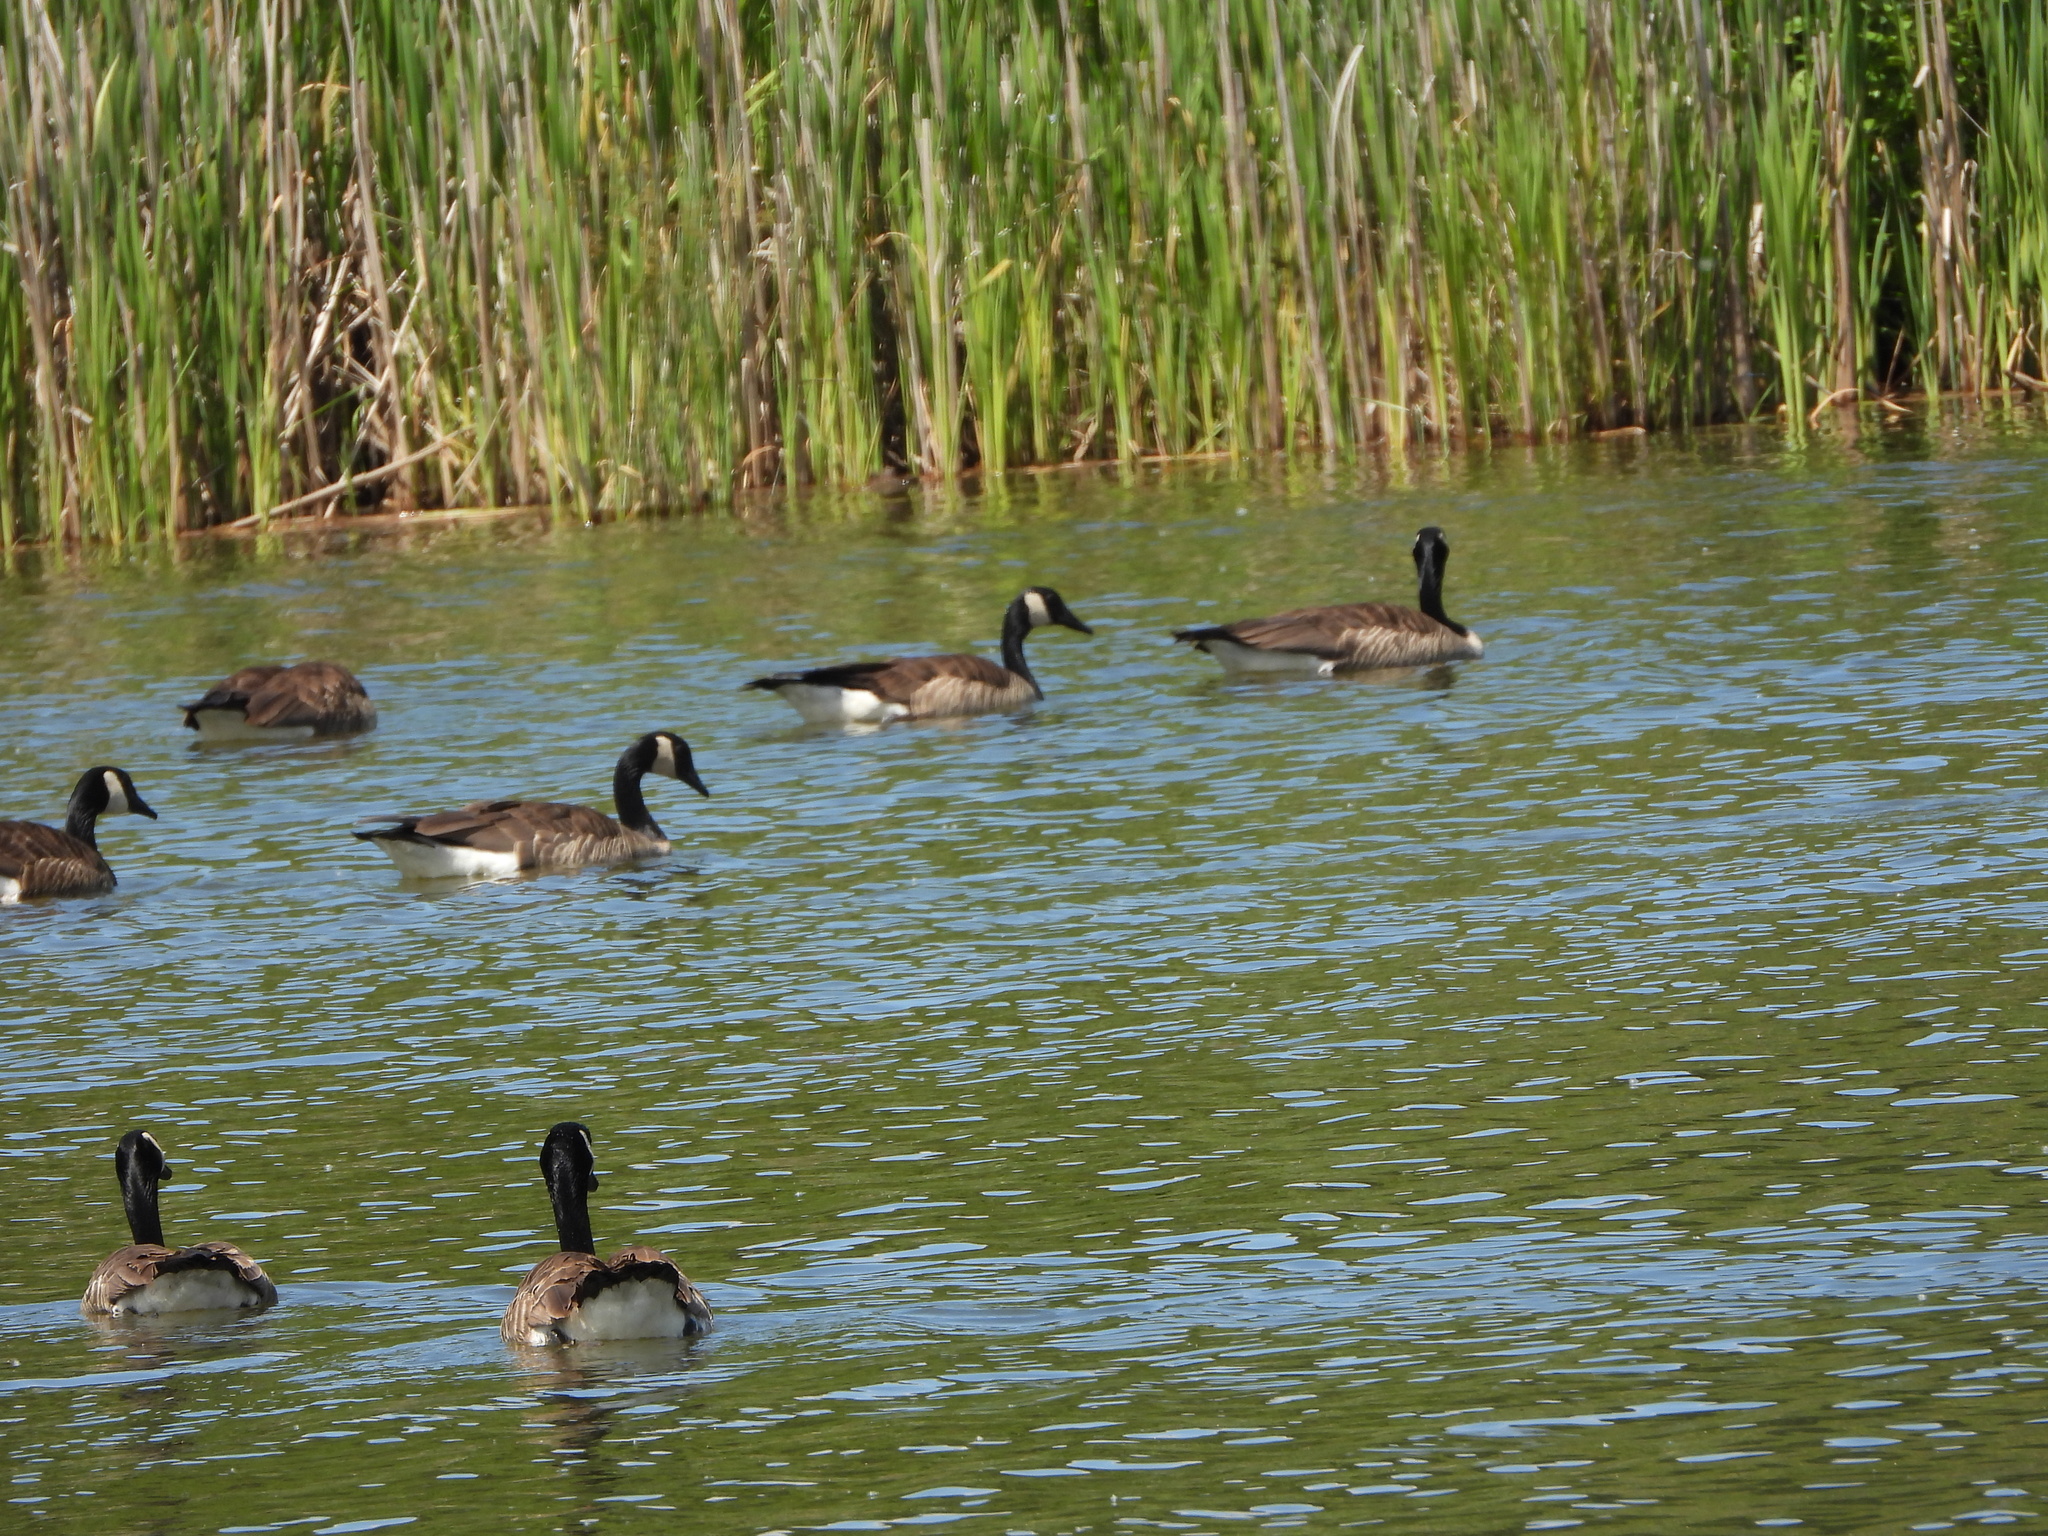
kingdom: Animalia
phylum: Chordata
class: Aves
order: Anseriformes
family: Anatidae
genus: Branta
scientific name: Branta canadensis
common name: Canada goose
